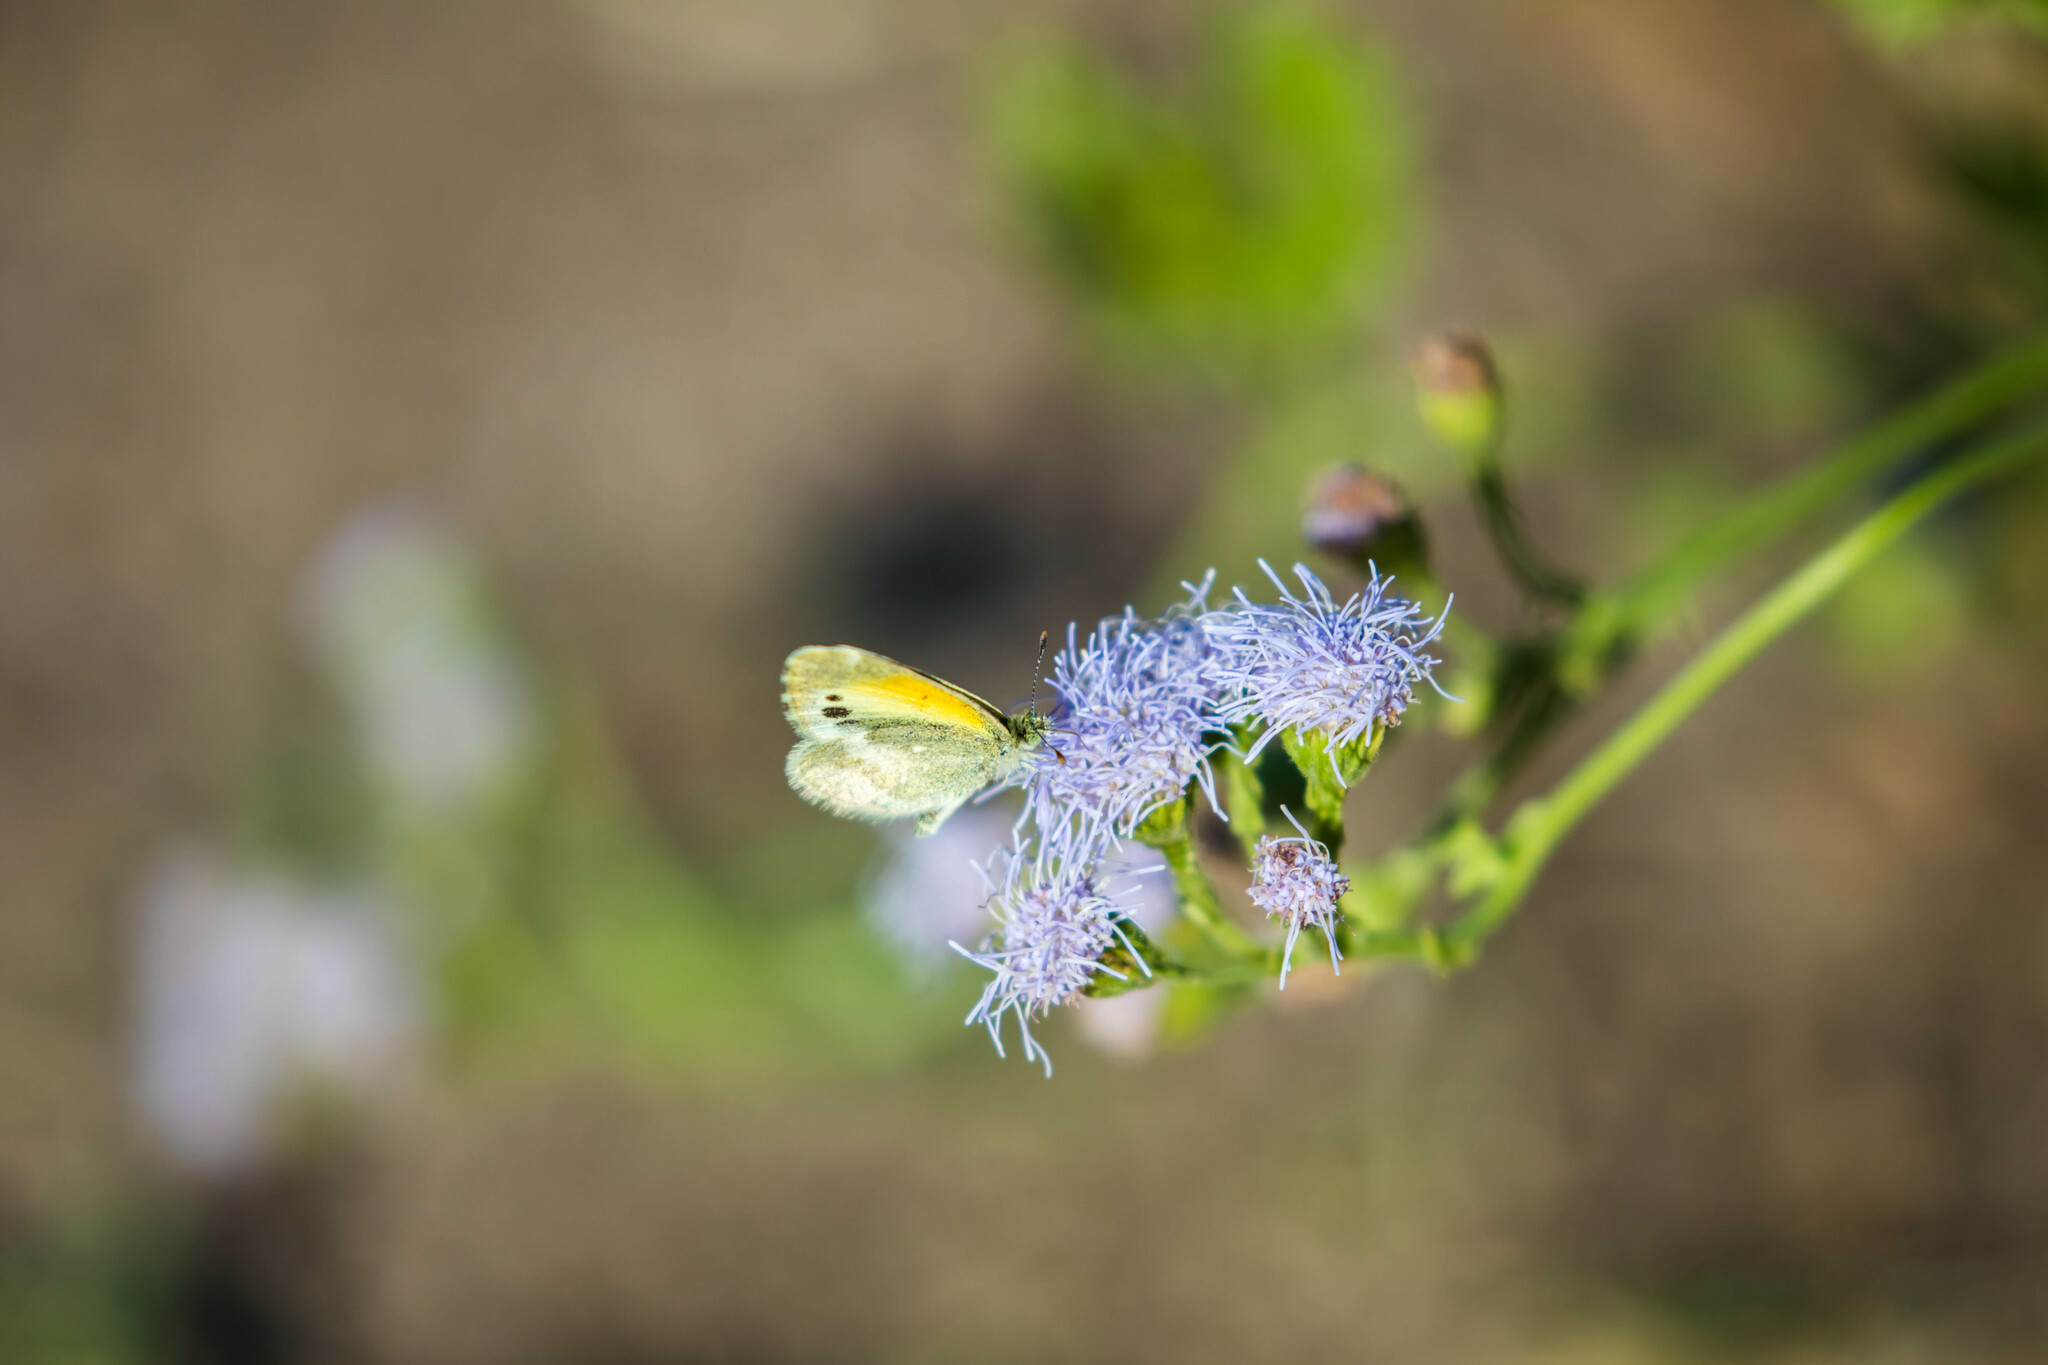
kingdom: Animalia
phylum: Arthropoda
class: Insecta
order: Lepidoptera
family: Pieridae
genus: Nathalis
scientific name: Nathalis iole
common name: Dainty sulphur
